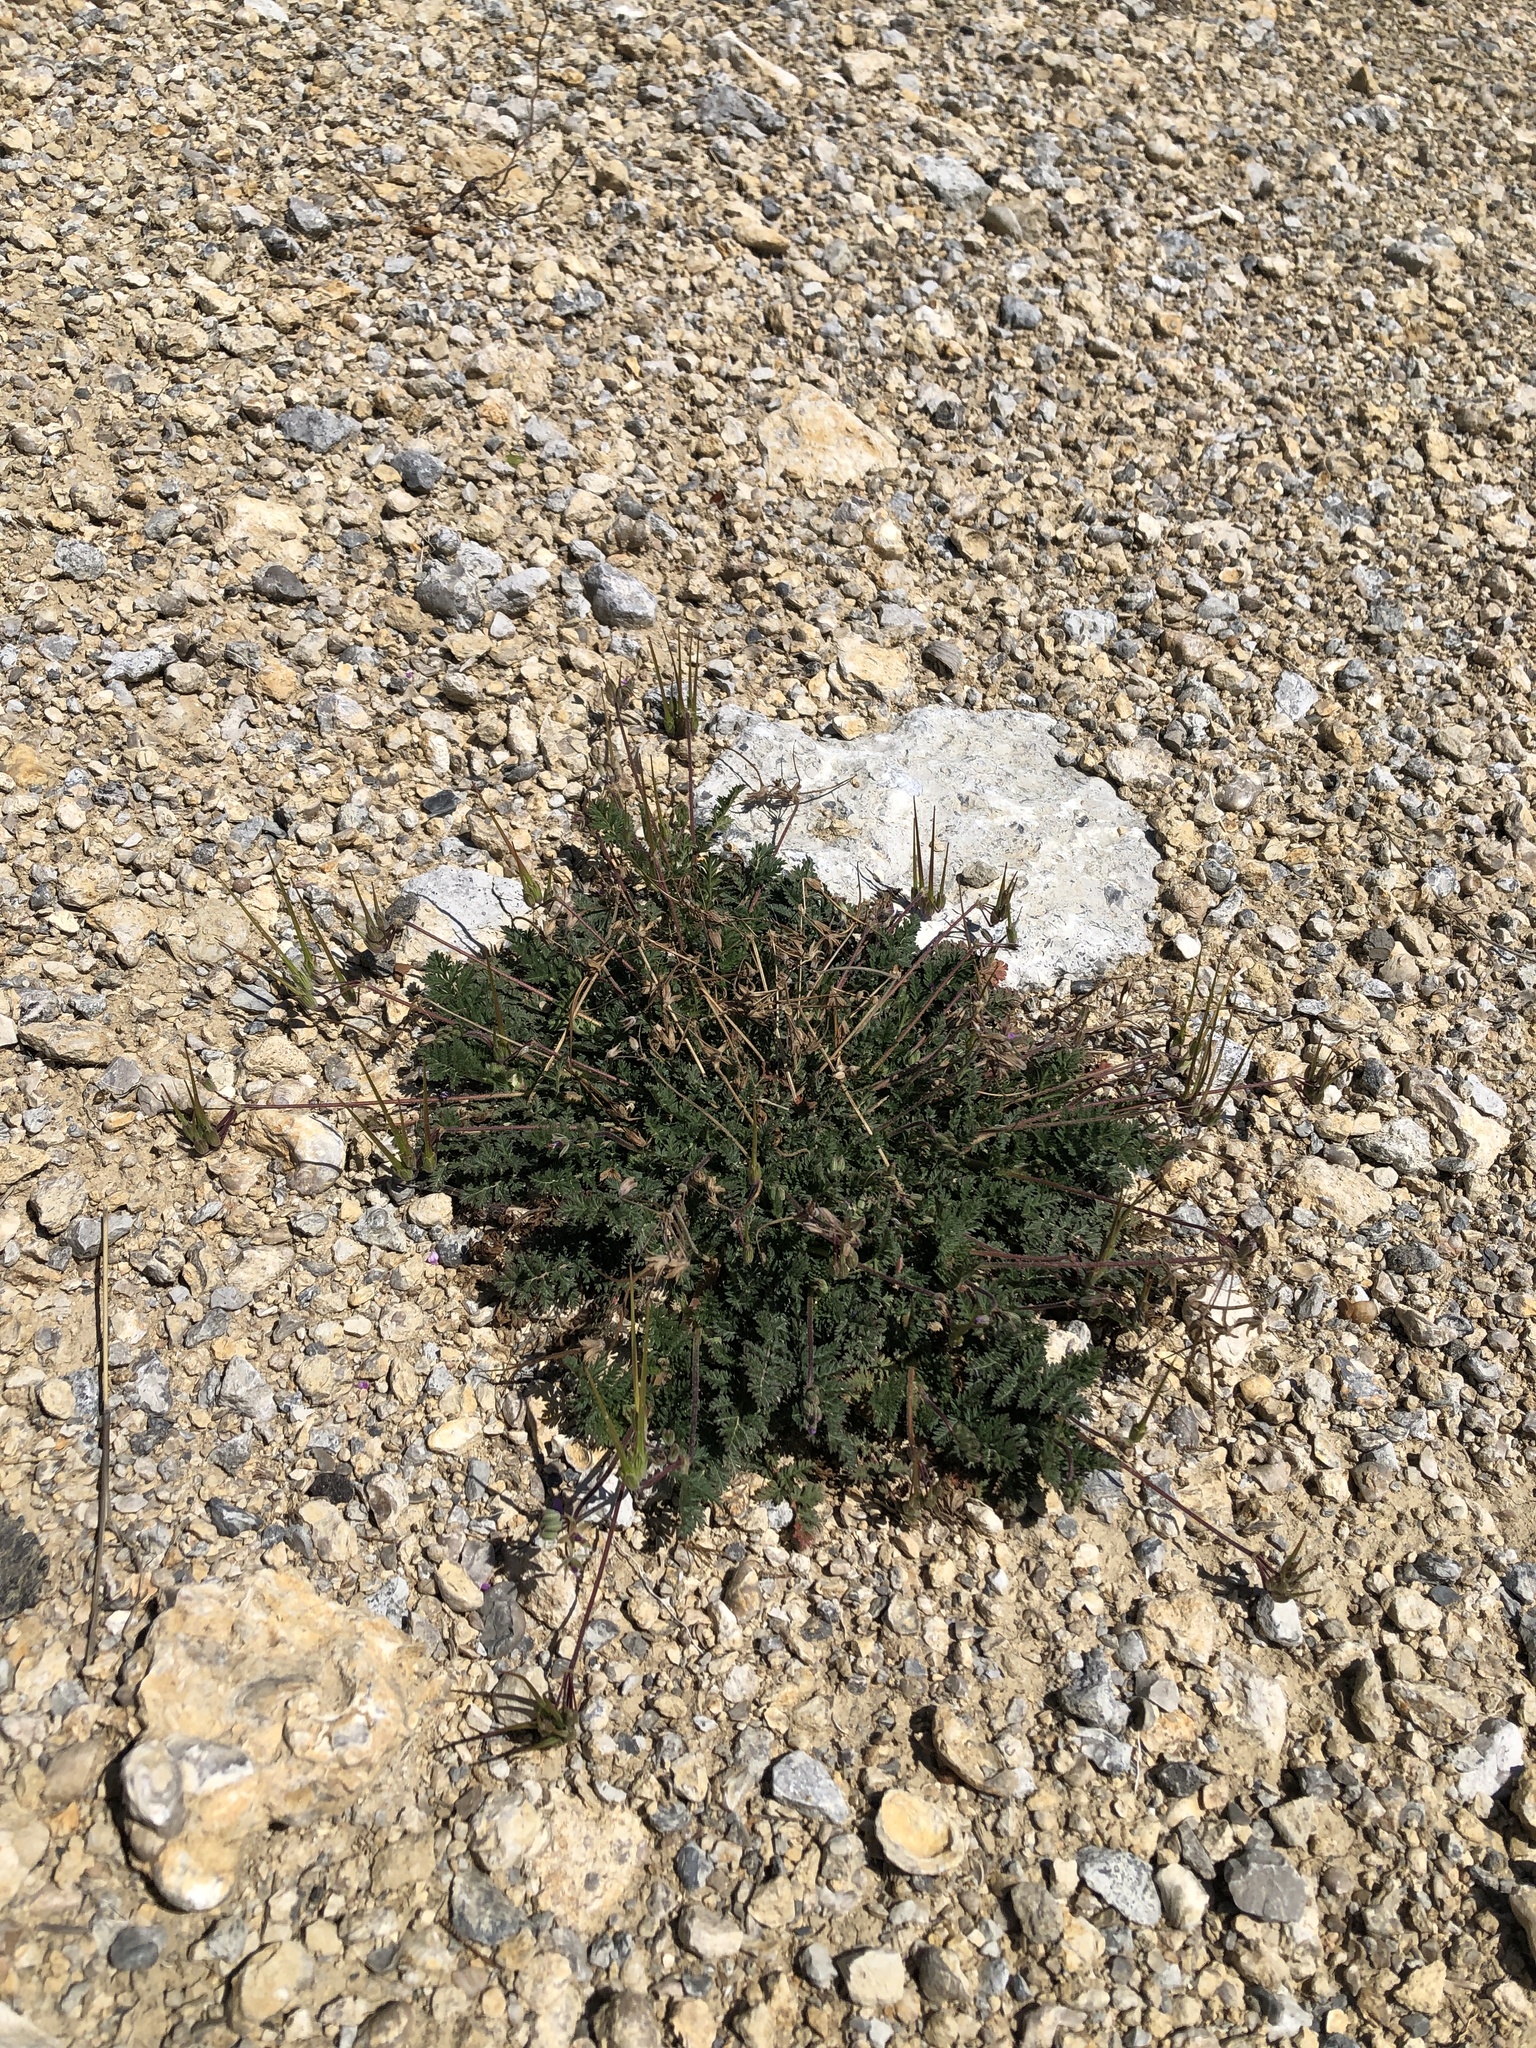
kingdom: Plantae
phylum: Tracheophyta
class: Magnoliopsida
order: Geraniales
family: Geraniaceae
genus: Erodium
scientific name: Erodium cicutarium
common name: Common stork's-bill
